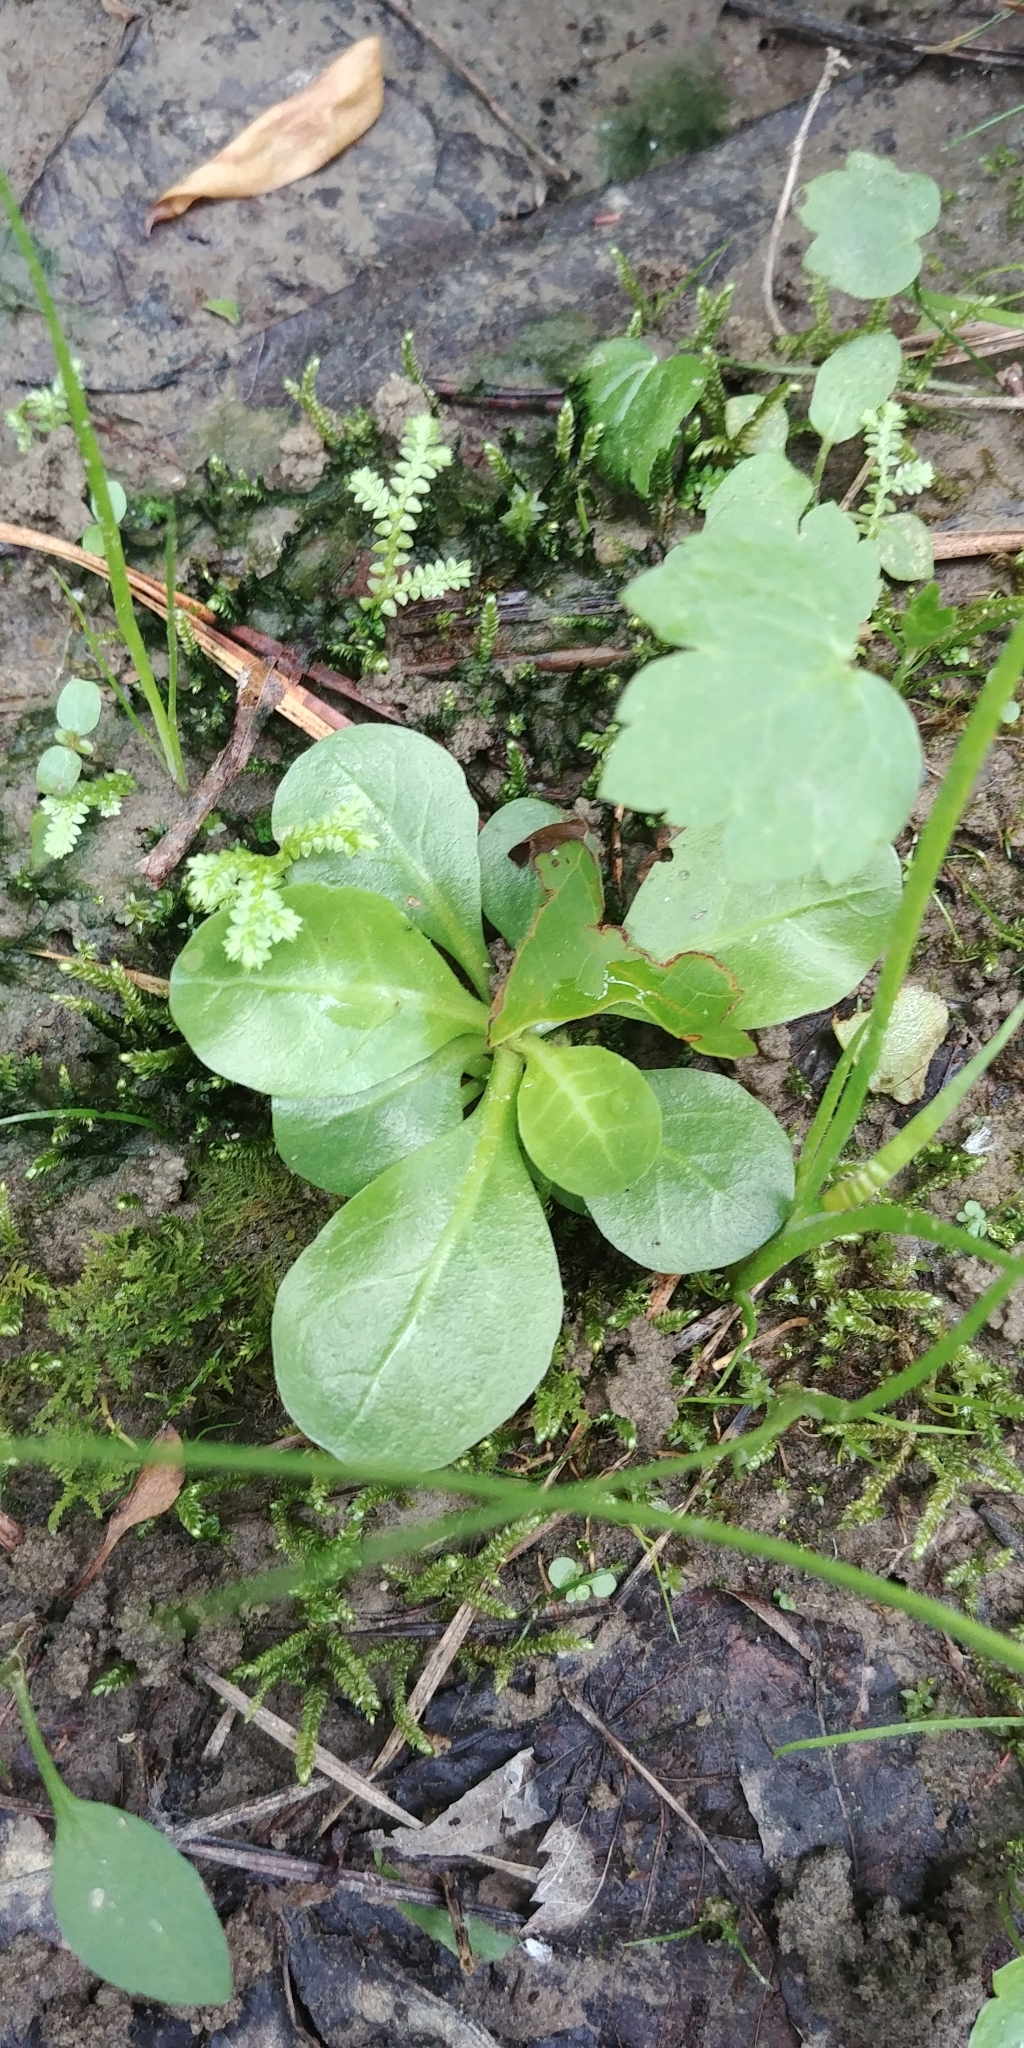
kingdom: Plantae
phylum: Tracheophyta
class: Magnoliopsida
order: Ericales
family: Primulaceae
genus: Samolus
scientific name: Samolus parviflorus
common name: False water pimpernel
